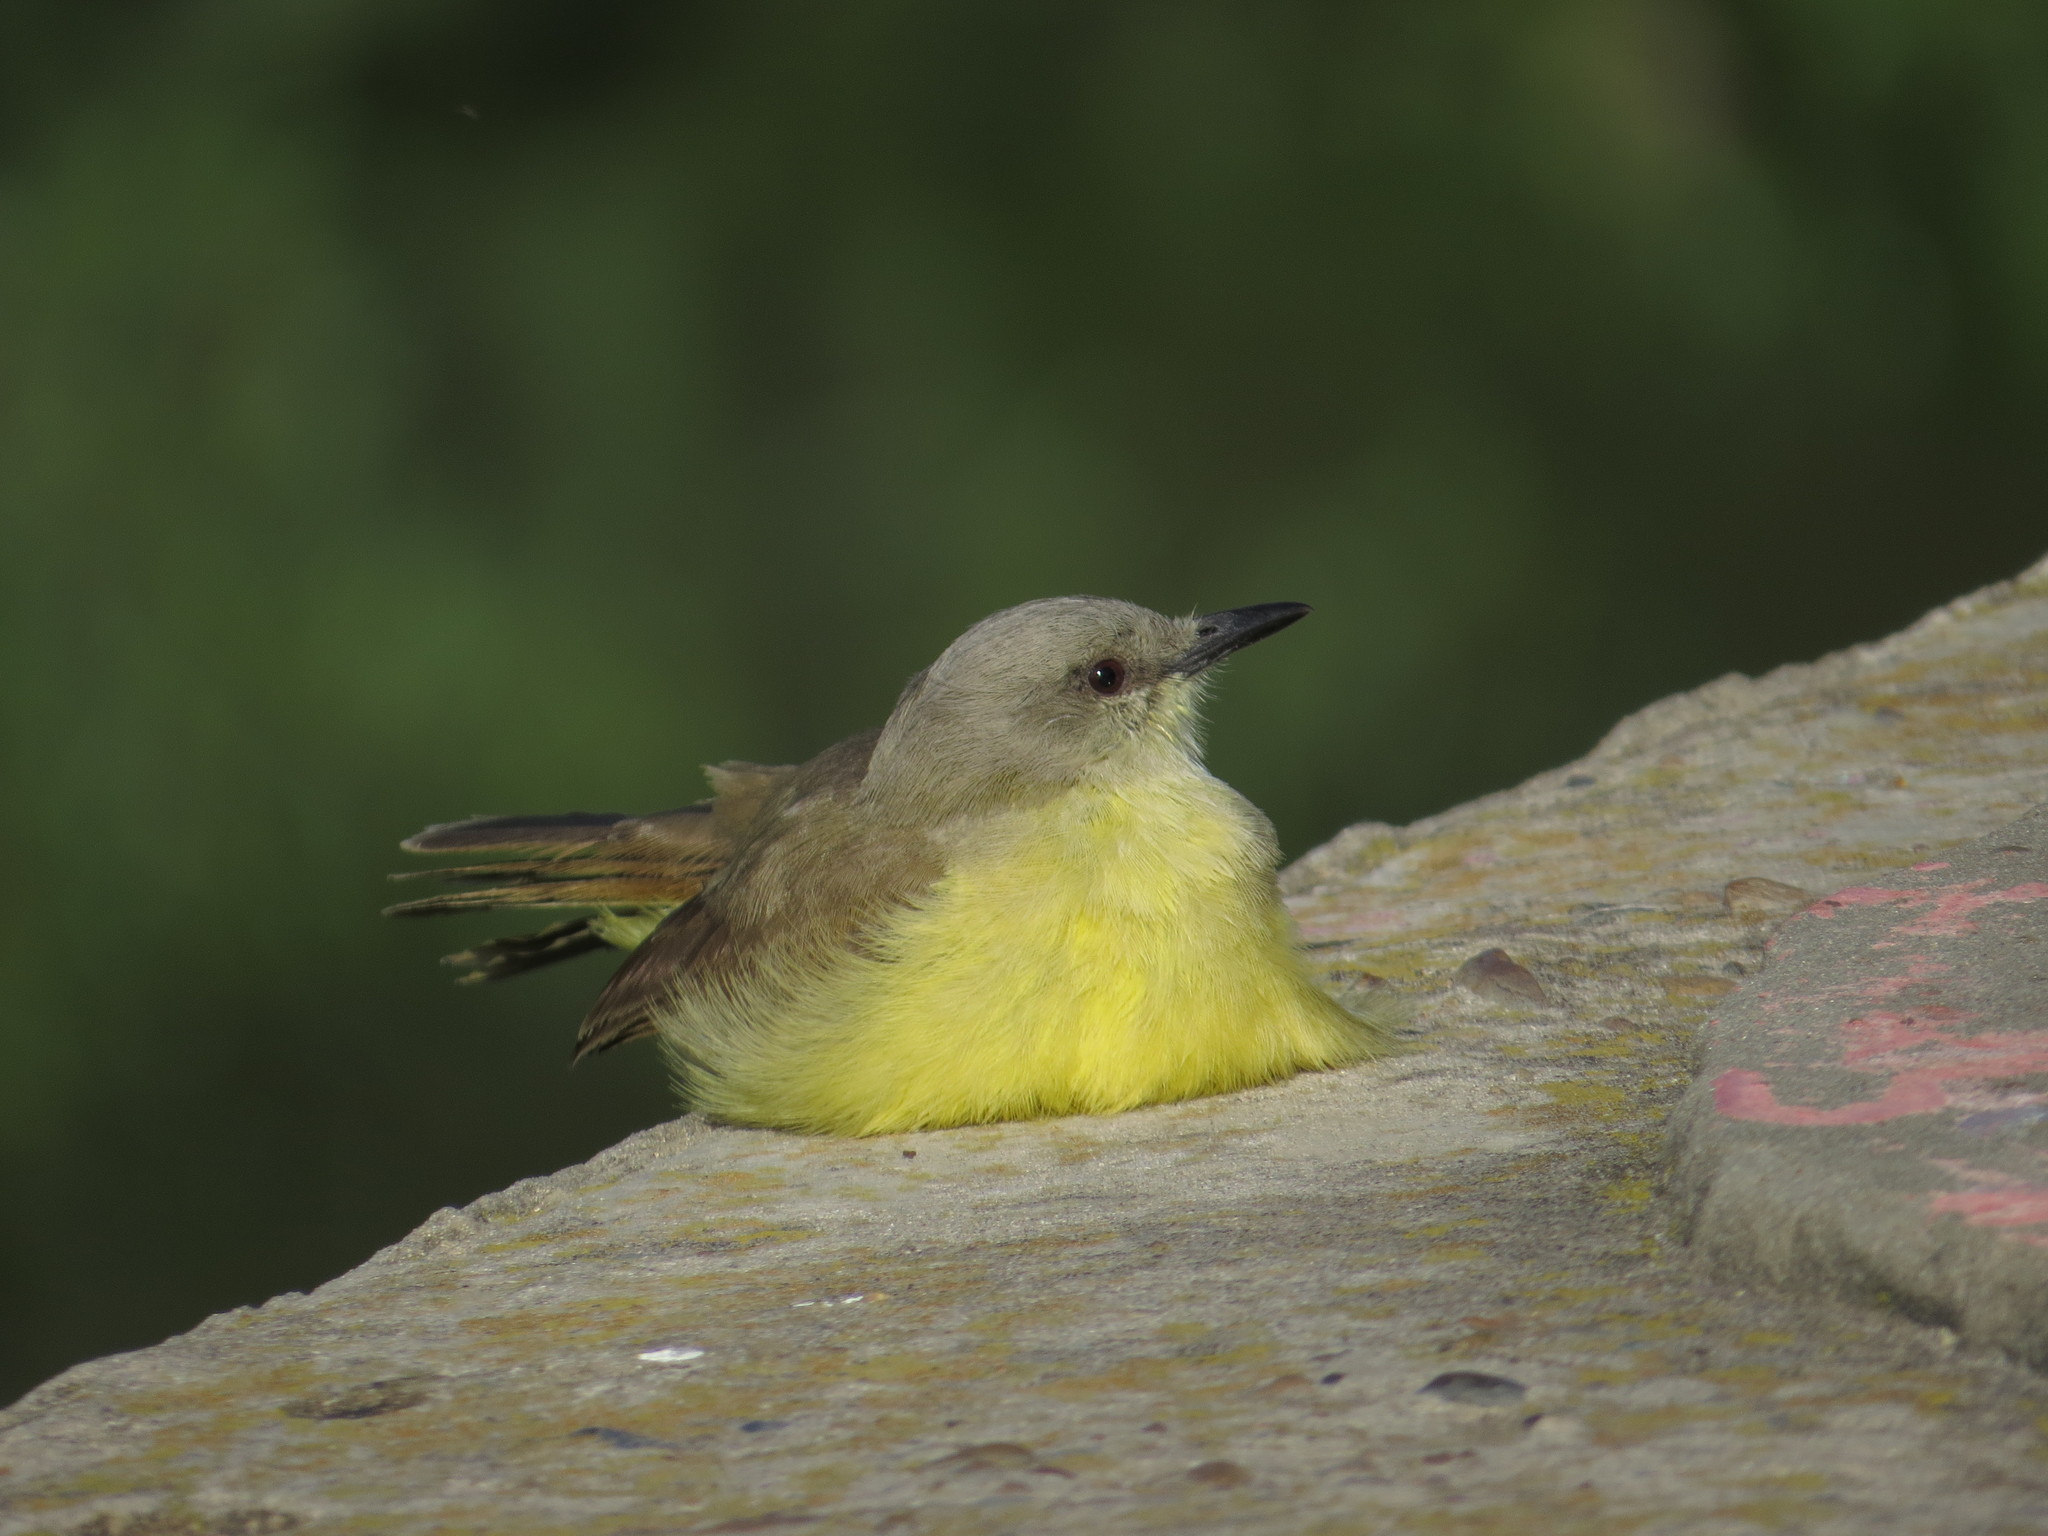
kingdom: Animalia
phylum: Chordata
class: Aves
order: Passeriformes
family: Tyrannidae
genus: Machetornis
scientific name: Machetornis rixosa
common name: Cattle tyrant
